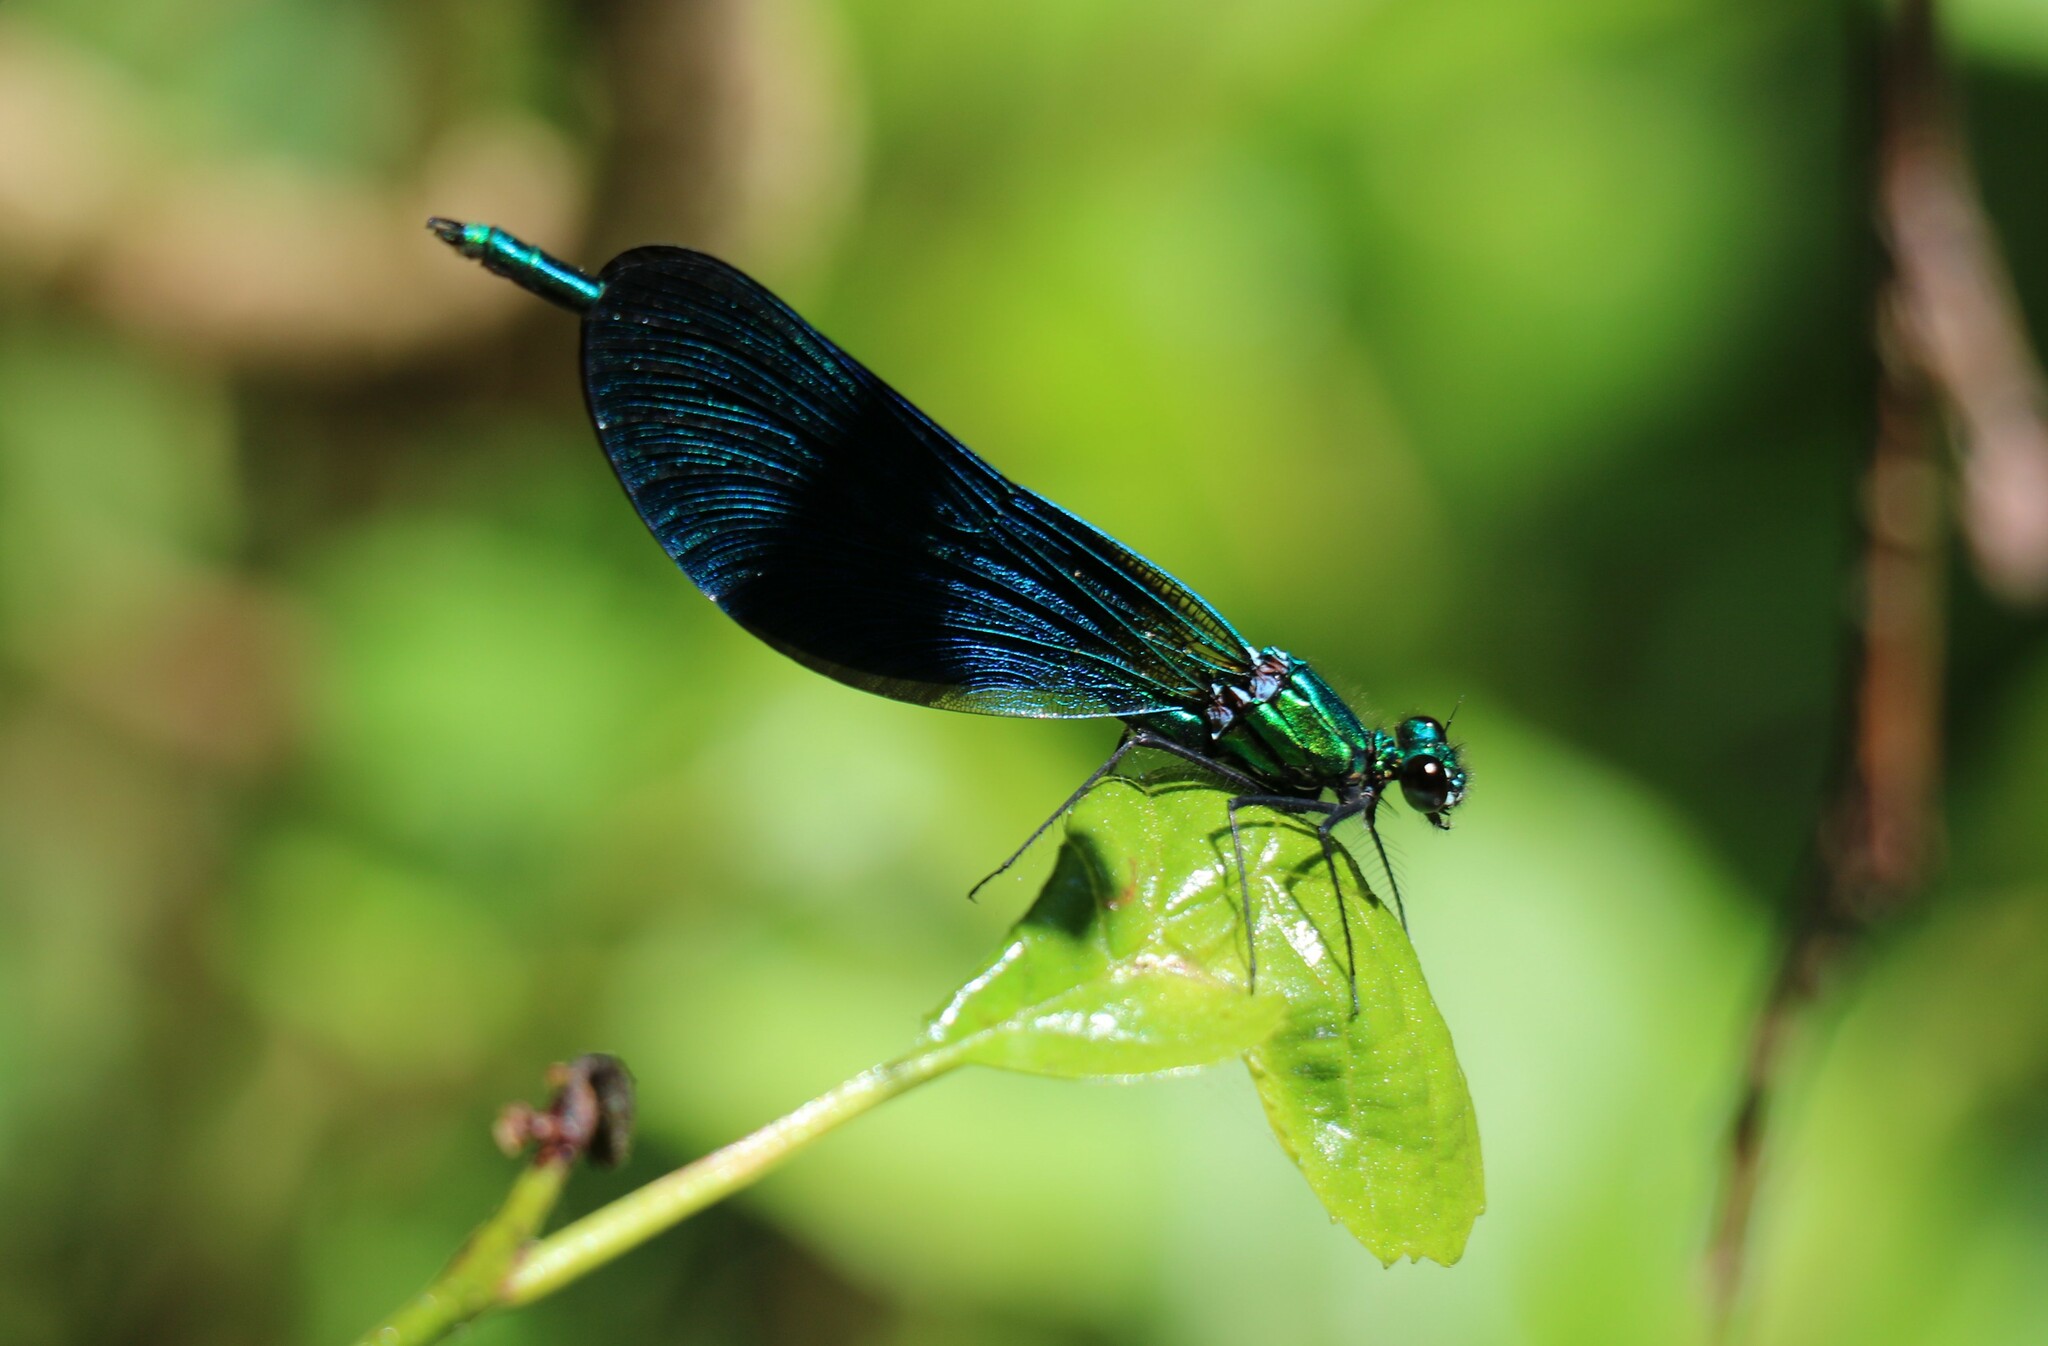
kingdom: Animalia
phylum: Arthropoda
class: Insecta
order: Odonata
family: Calopterygidae
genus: Calopteryx
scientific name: Calopteryx virgo
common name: Beautiful demoiselle
